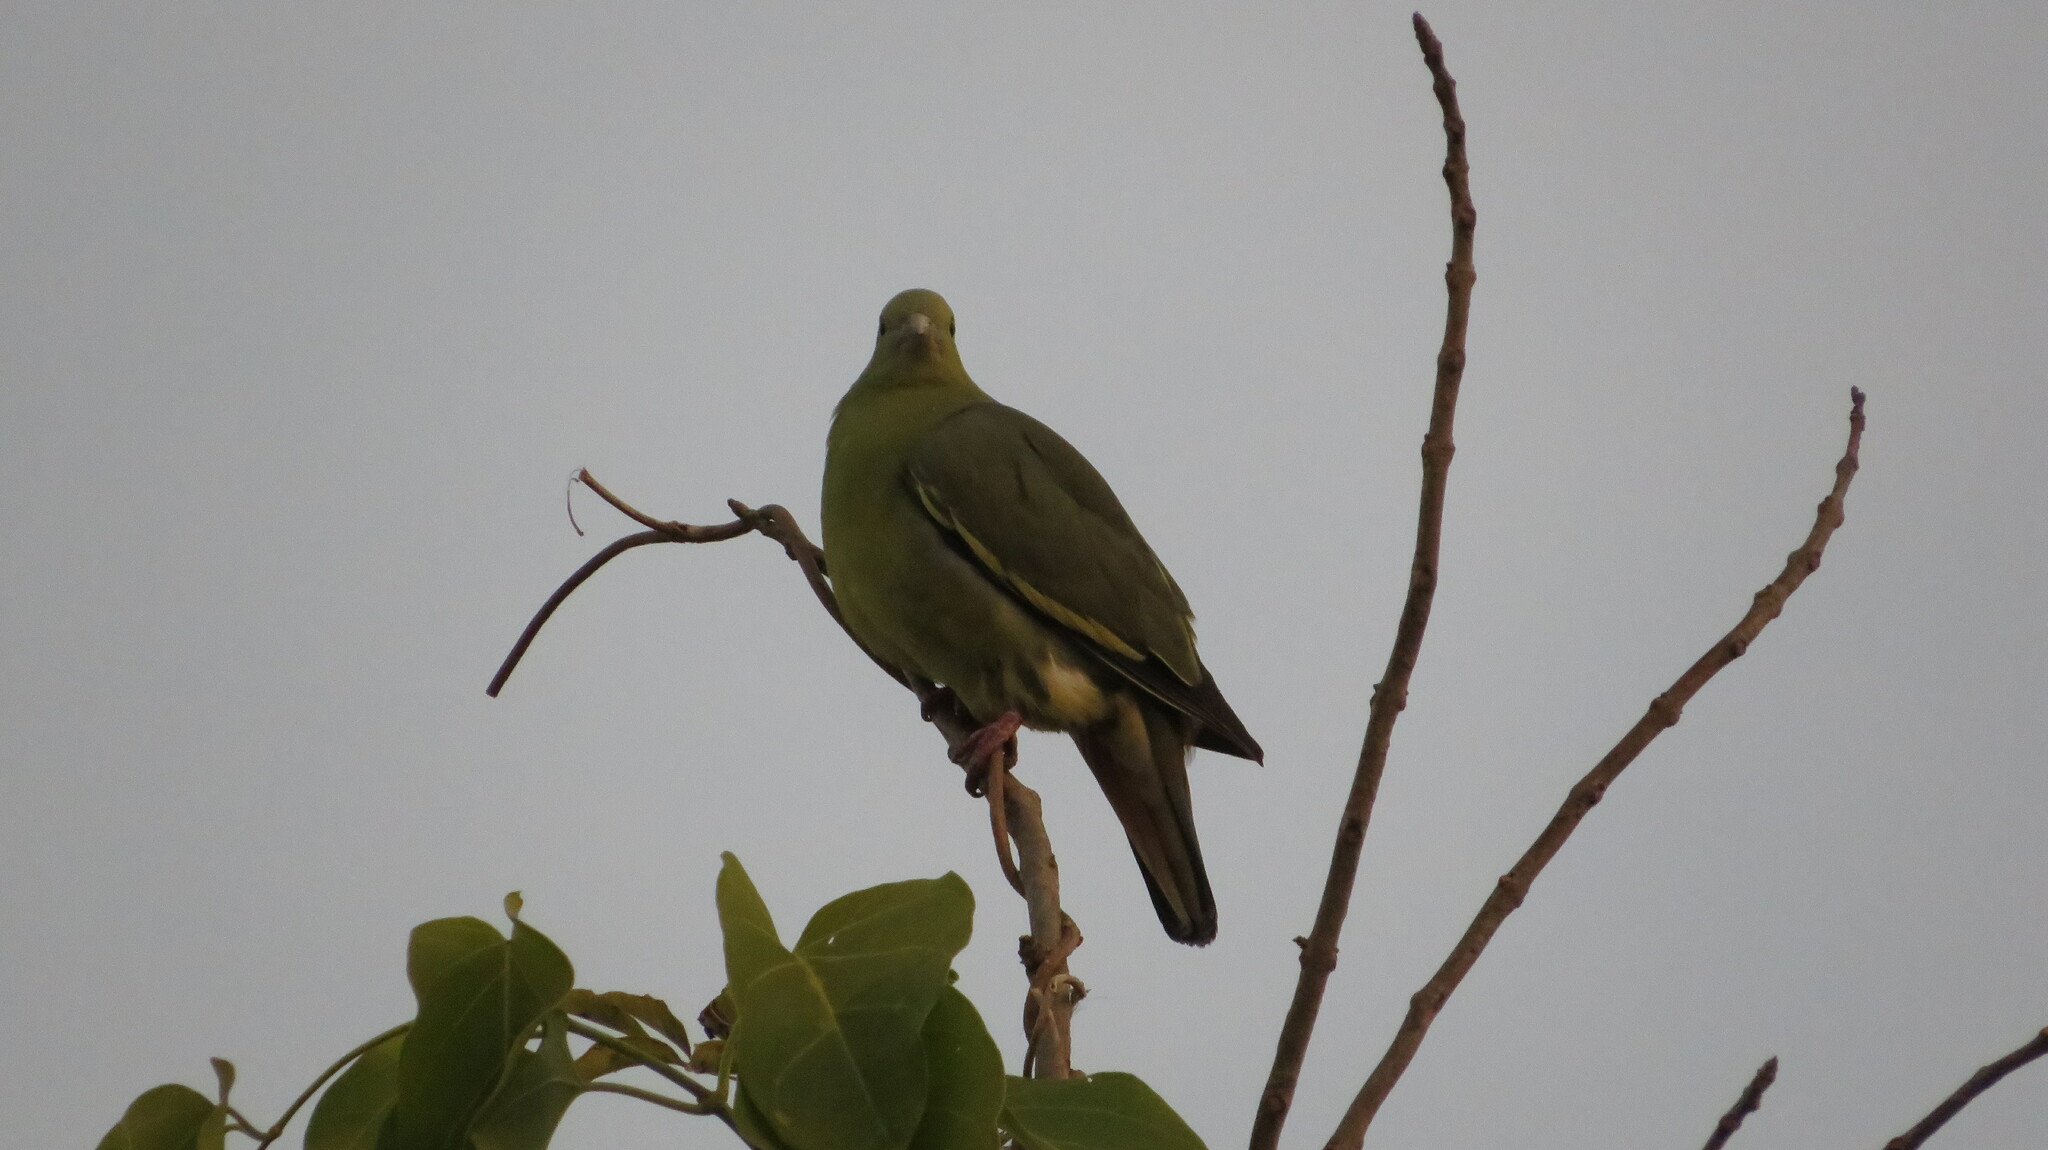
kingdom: Animalia
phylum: Chordata
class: Aves
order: Columbiformes
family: Columbidae
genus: Treron
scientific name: Treron vernans
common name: Pink-necked green pigeon
